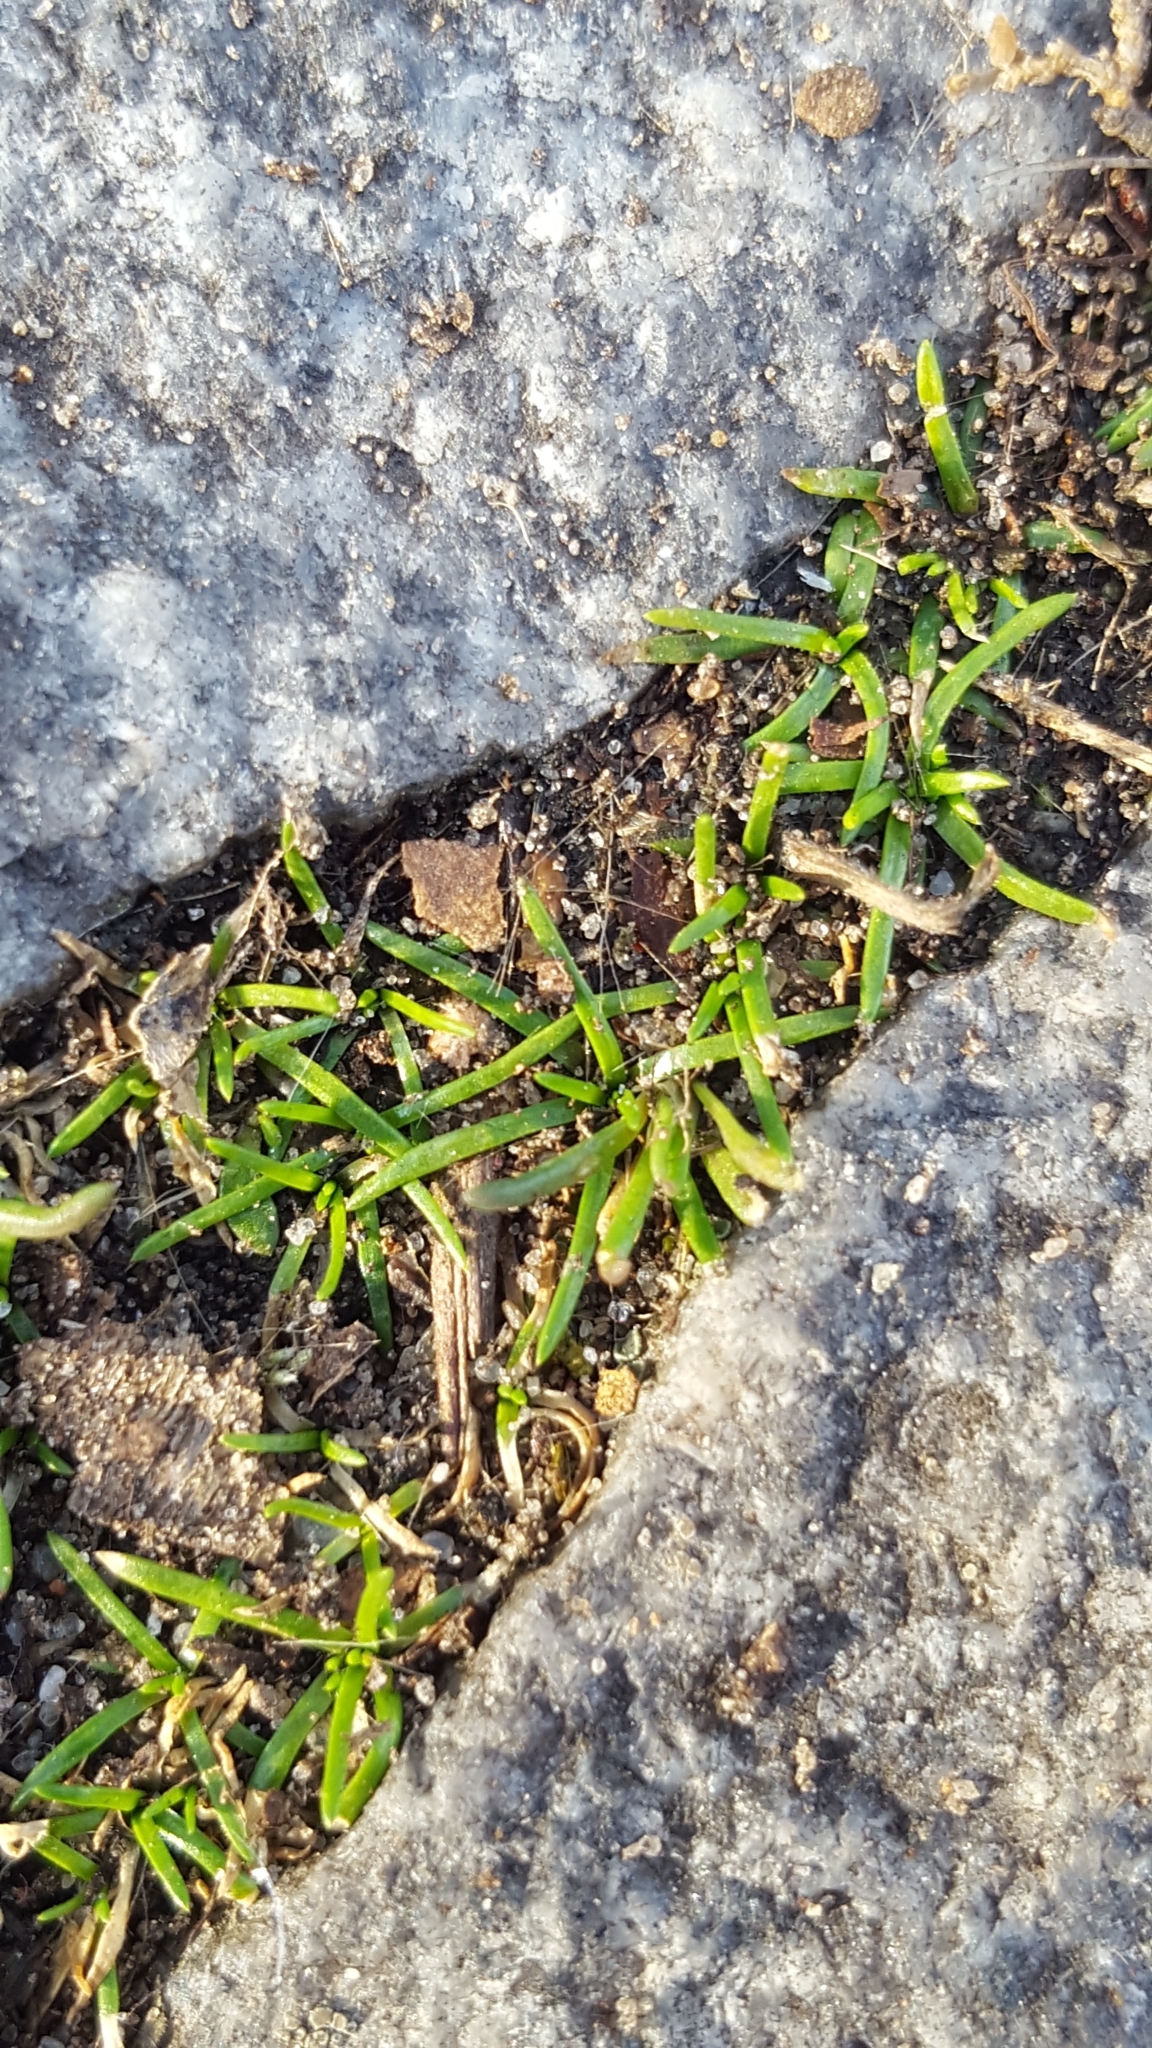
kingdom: Plantae
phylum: Tracheophyta
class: Magnoliopsida
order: Caryophyllales
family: Caryophyllaceae
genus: Sagina
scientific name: Sagina procumbens
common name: Procumbent pearlwort
